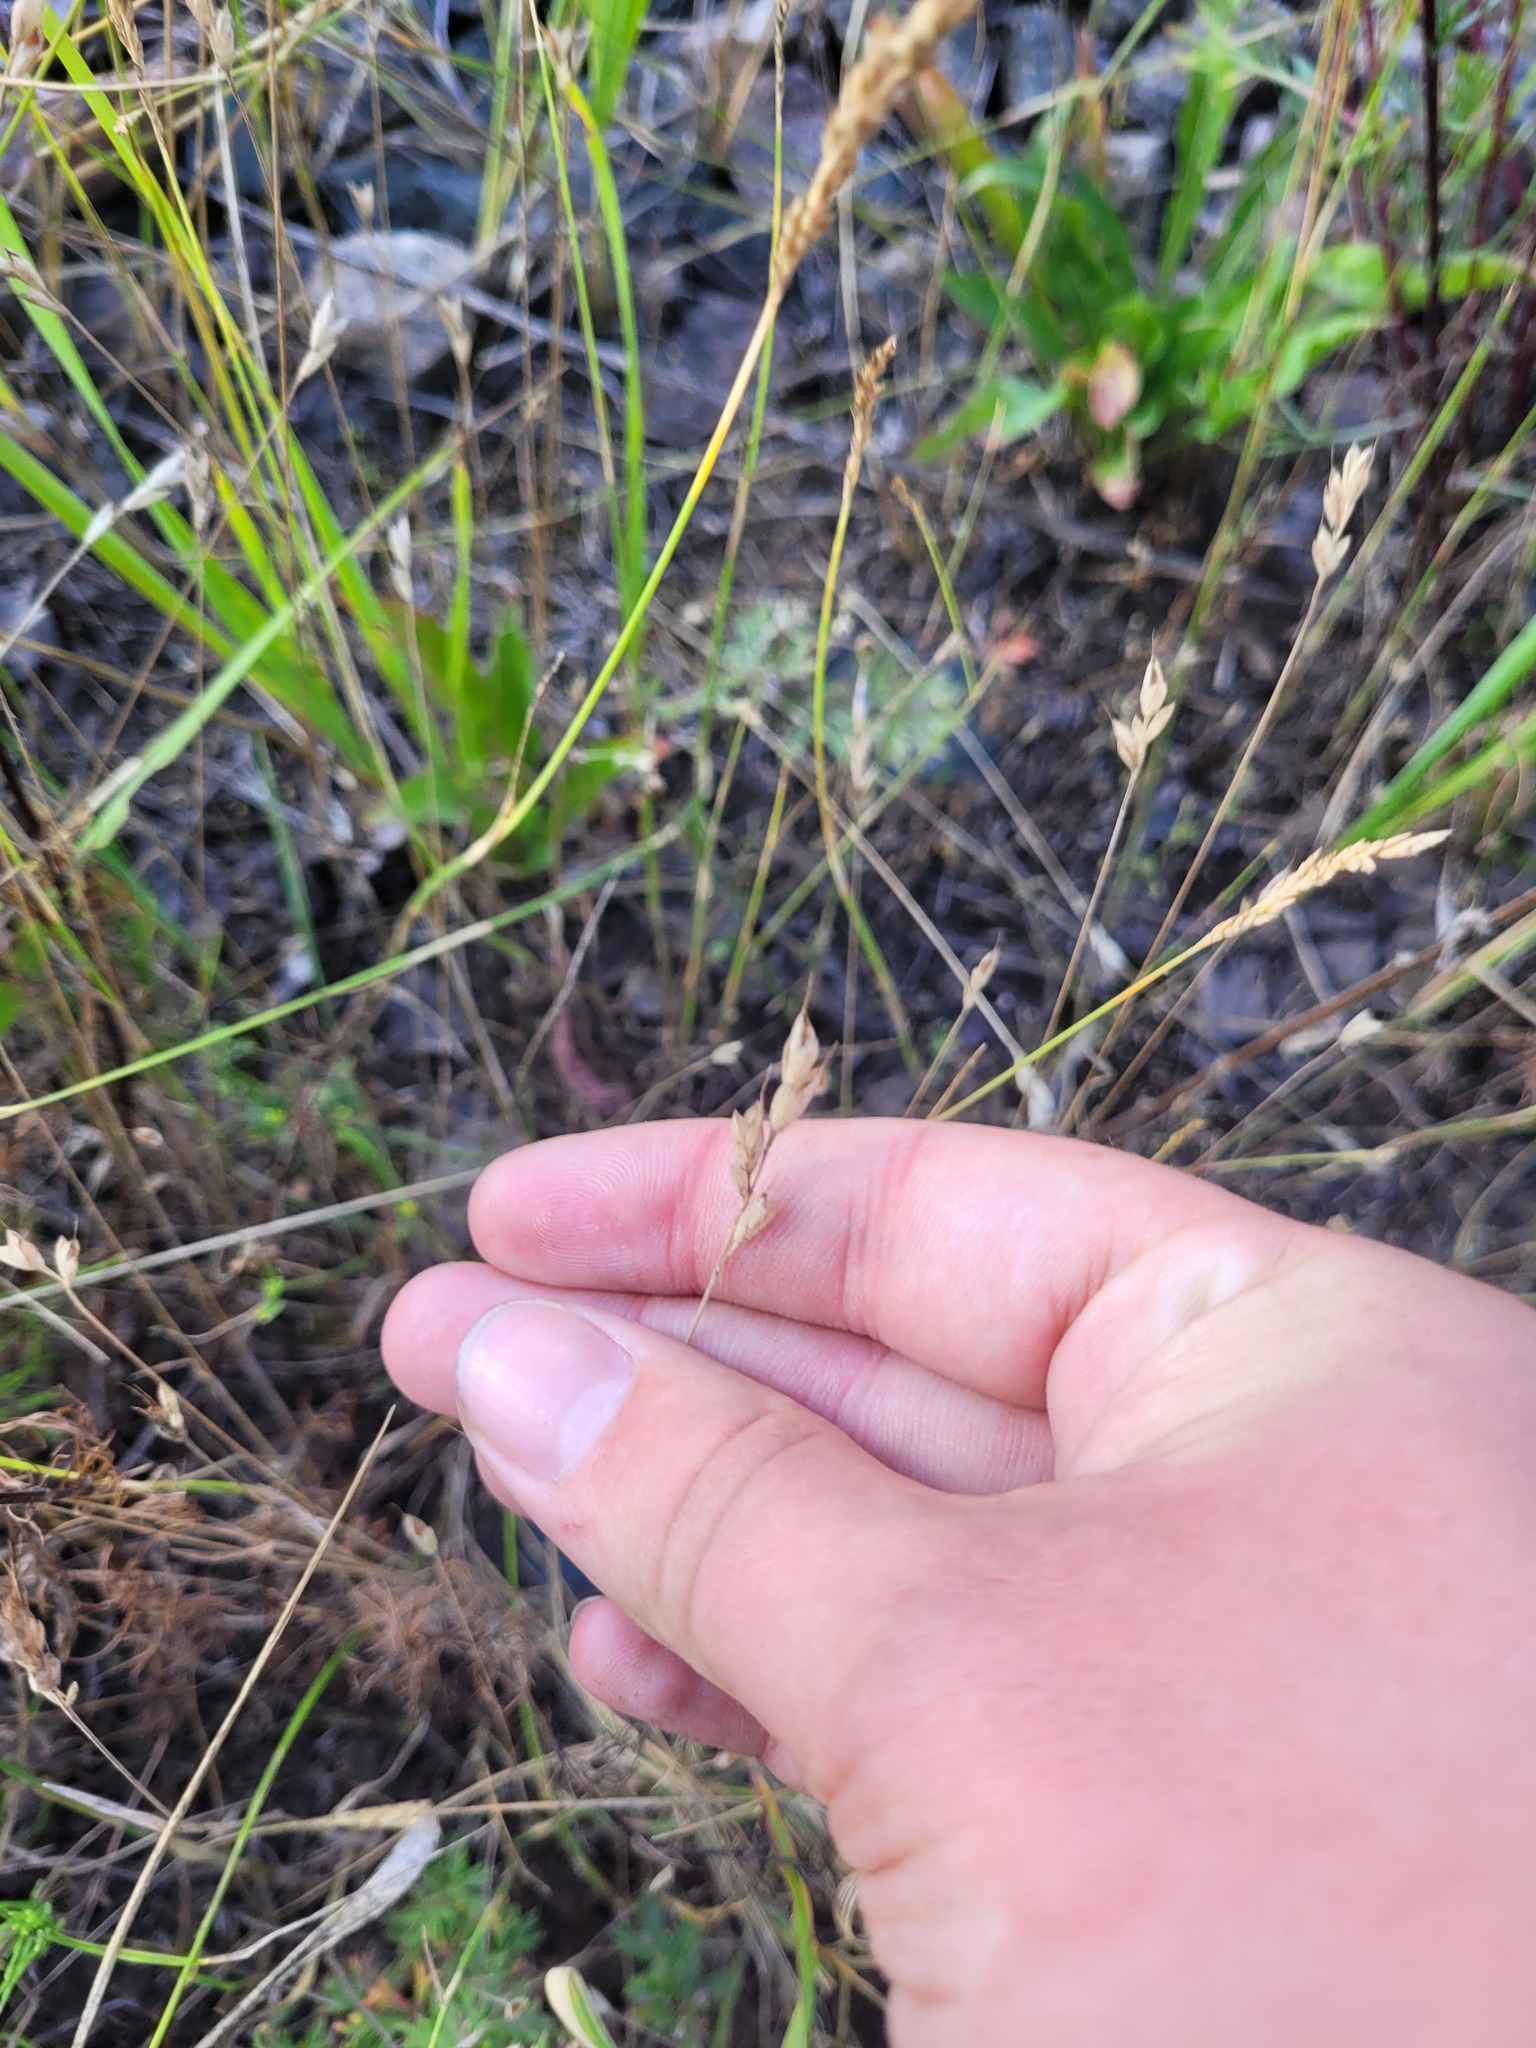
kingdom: Plantae
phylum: Tracheophyta
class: Liliopsida
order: Poales
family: Poaceae
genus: Bromus
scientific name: Bromus hordeaceus
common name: Soft brome
